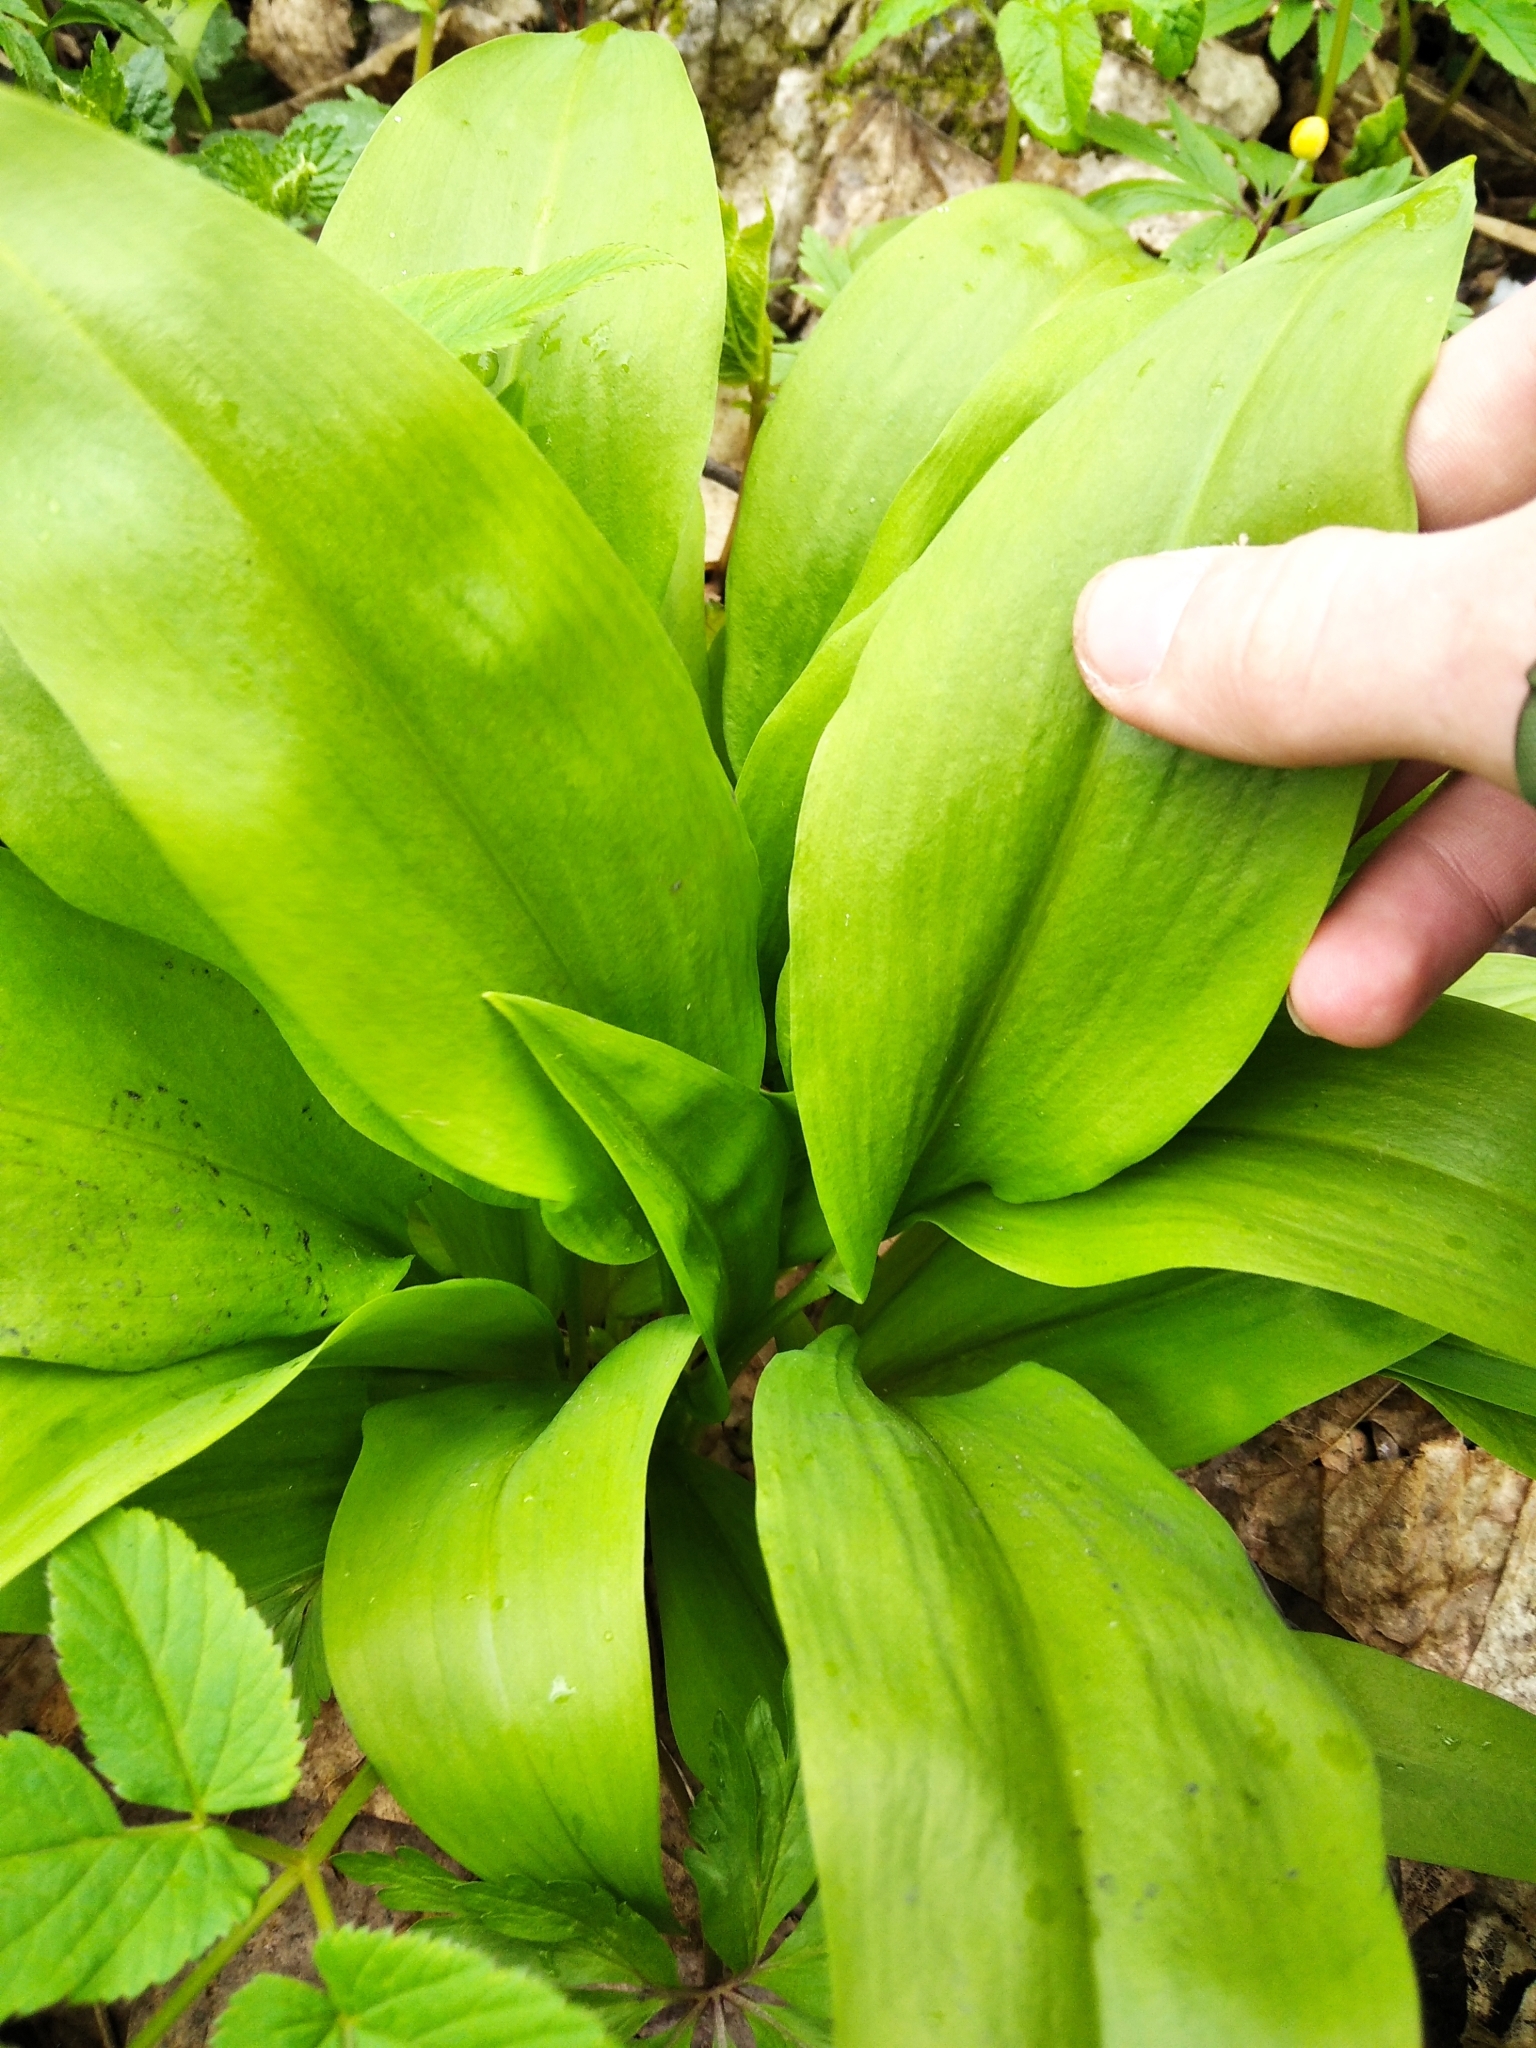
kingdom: Plantae
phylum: Tracheophyta
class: Liliopsida
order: Asparagales
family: Amaryllidaceae
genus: Allium
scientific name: Allium ursinum
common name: Ramsons
